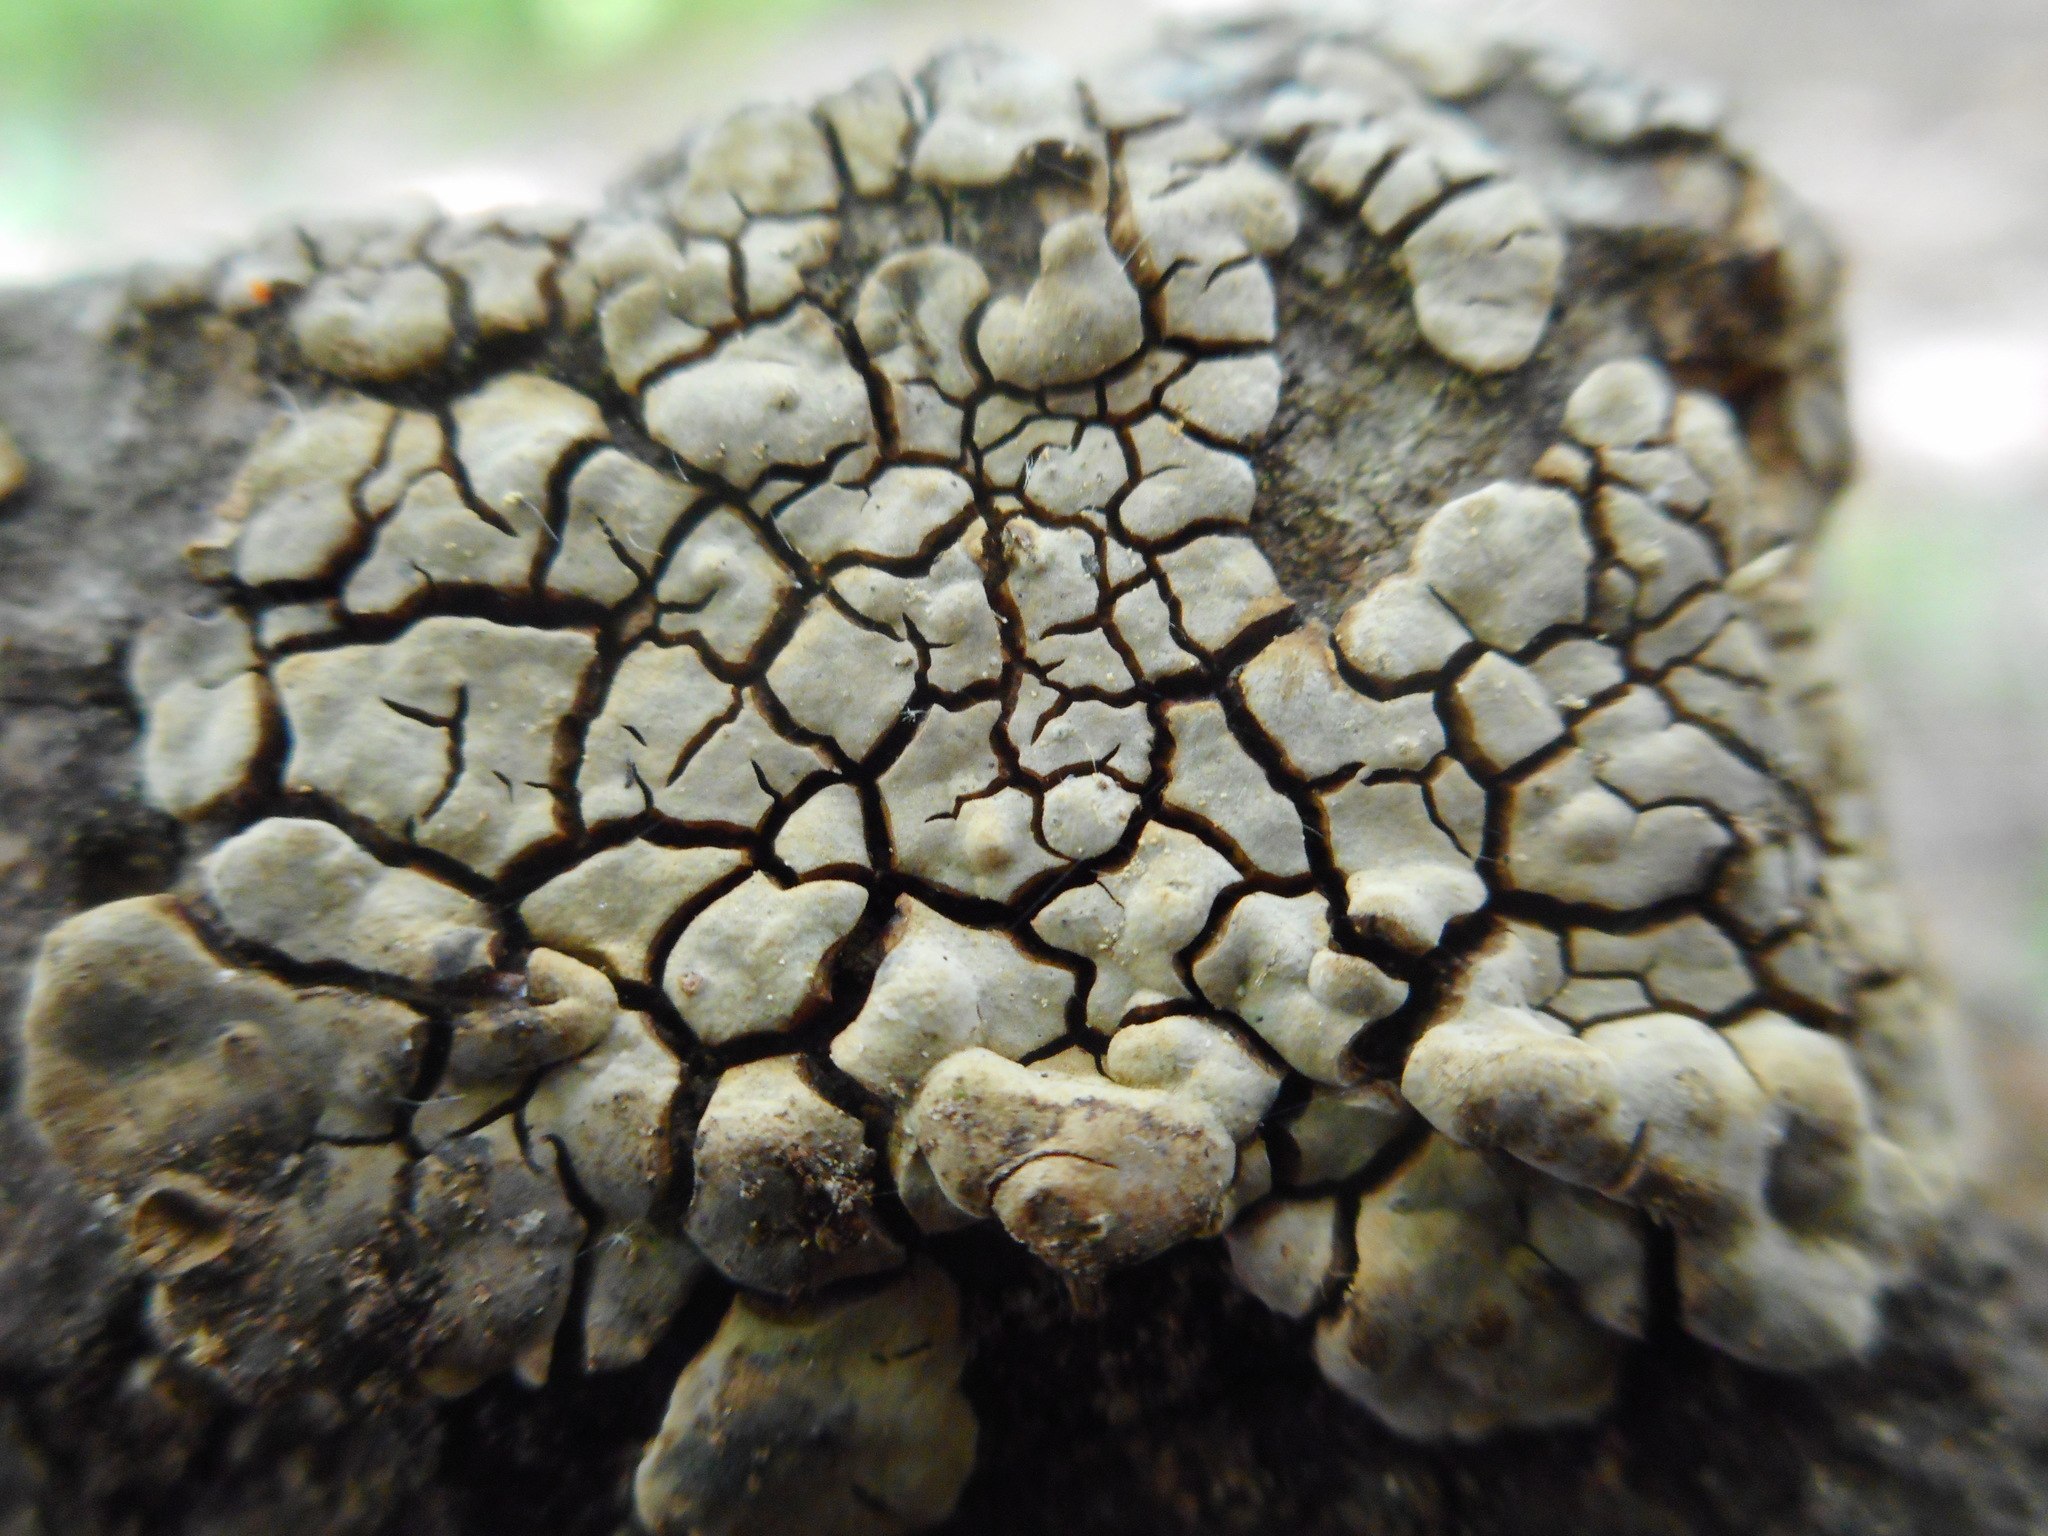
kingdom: Fungi
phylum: Basidiomycota
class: Agaricomycetes
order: Russulales
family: Stereaceae
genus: Xylobolus
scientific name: Xylobolus frustulatus
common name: Ceramic parchment
